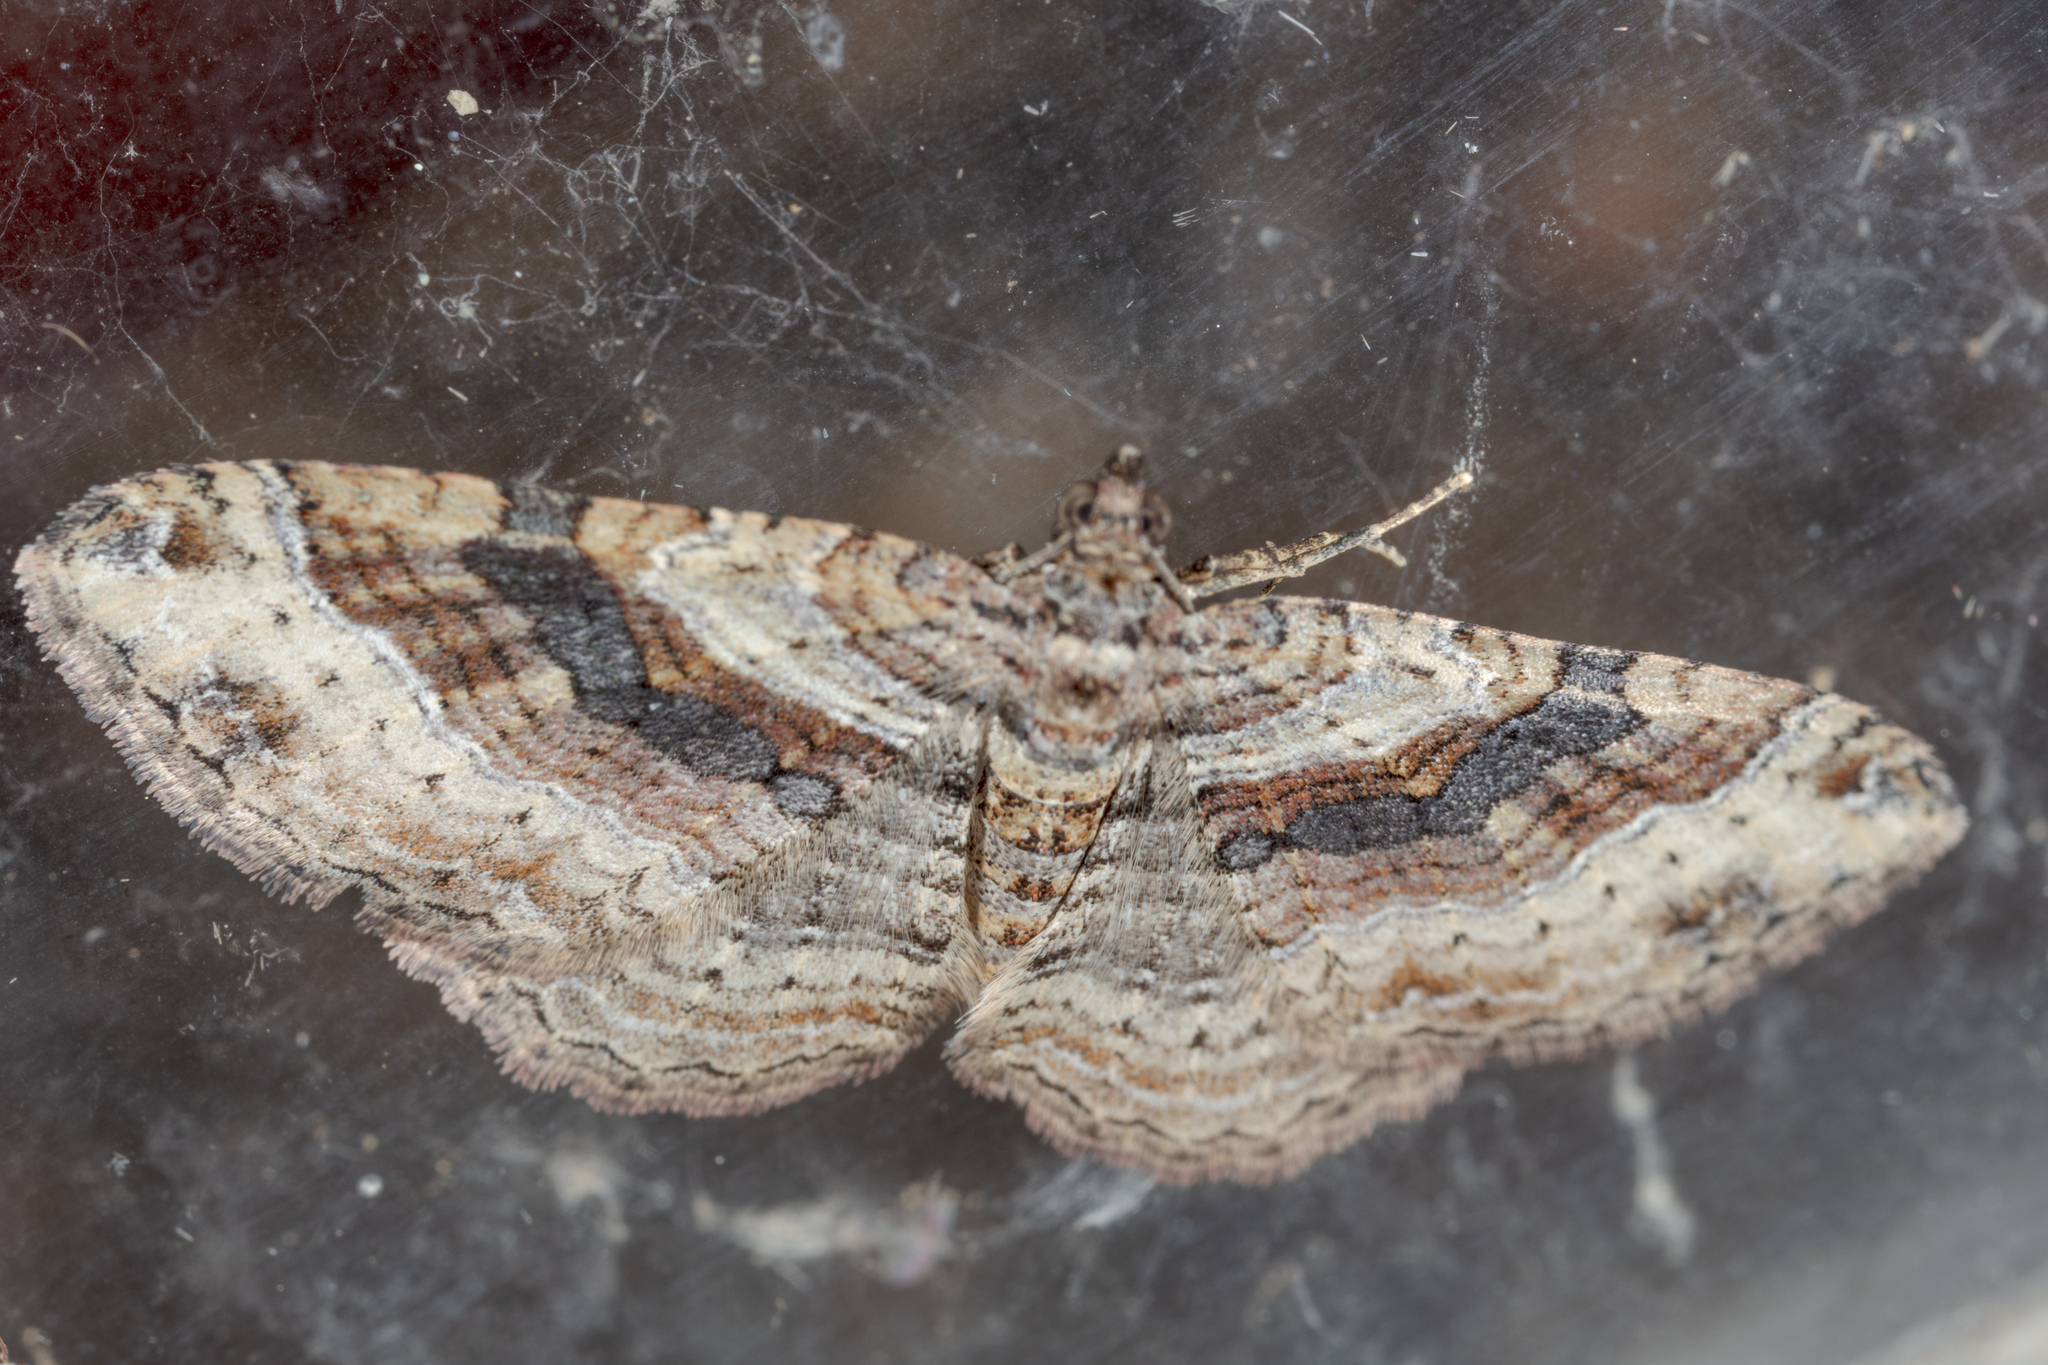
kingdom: Animalia
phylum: Arthropoda
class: Insecta
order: Lepidoptera
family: Geometridae
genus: Costaconvexa
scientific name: Costaconvexa centrostrigaria
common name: Bent-line carpet
